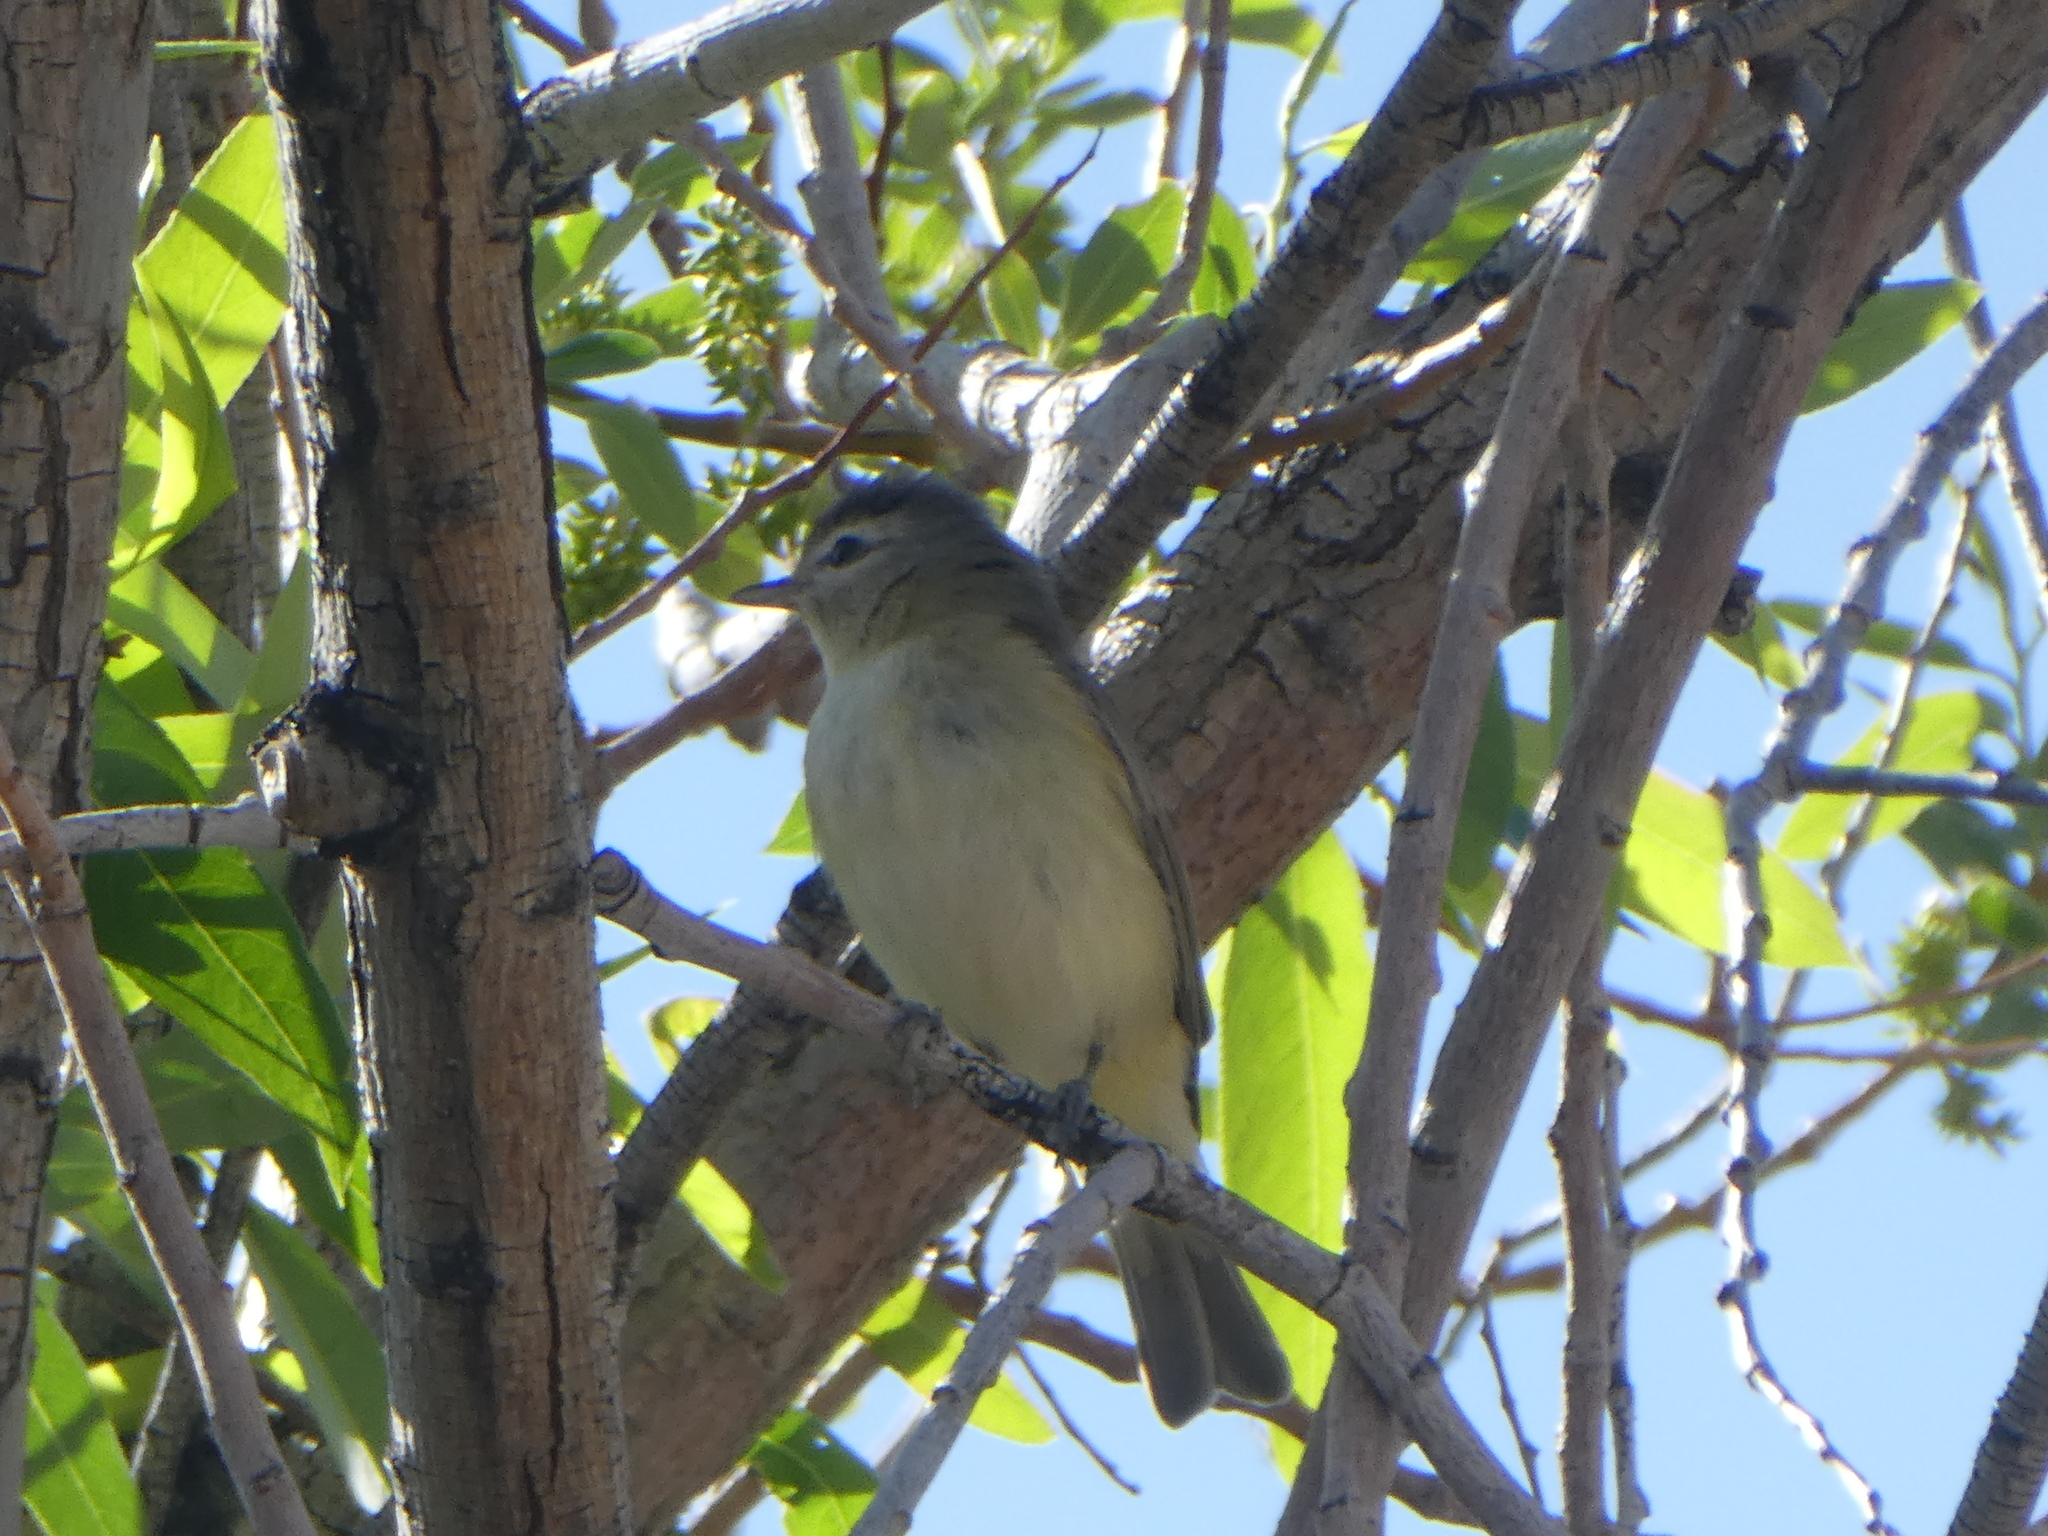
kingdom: Animalia
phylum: Chordata
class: Aves
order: Passeriformes
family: Vireonidae
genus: Vireo
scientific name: Vireo gilvus
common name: Warbling vireo
